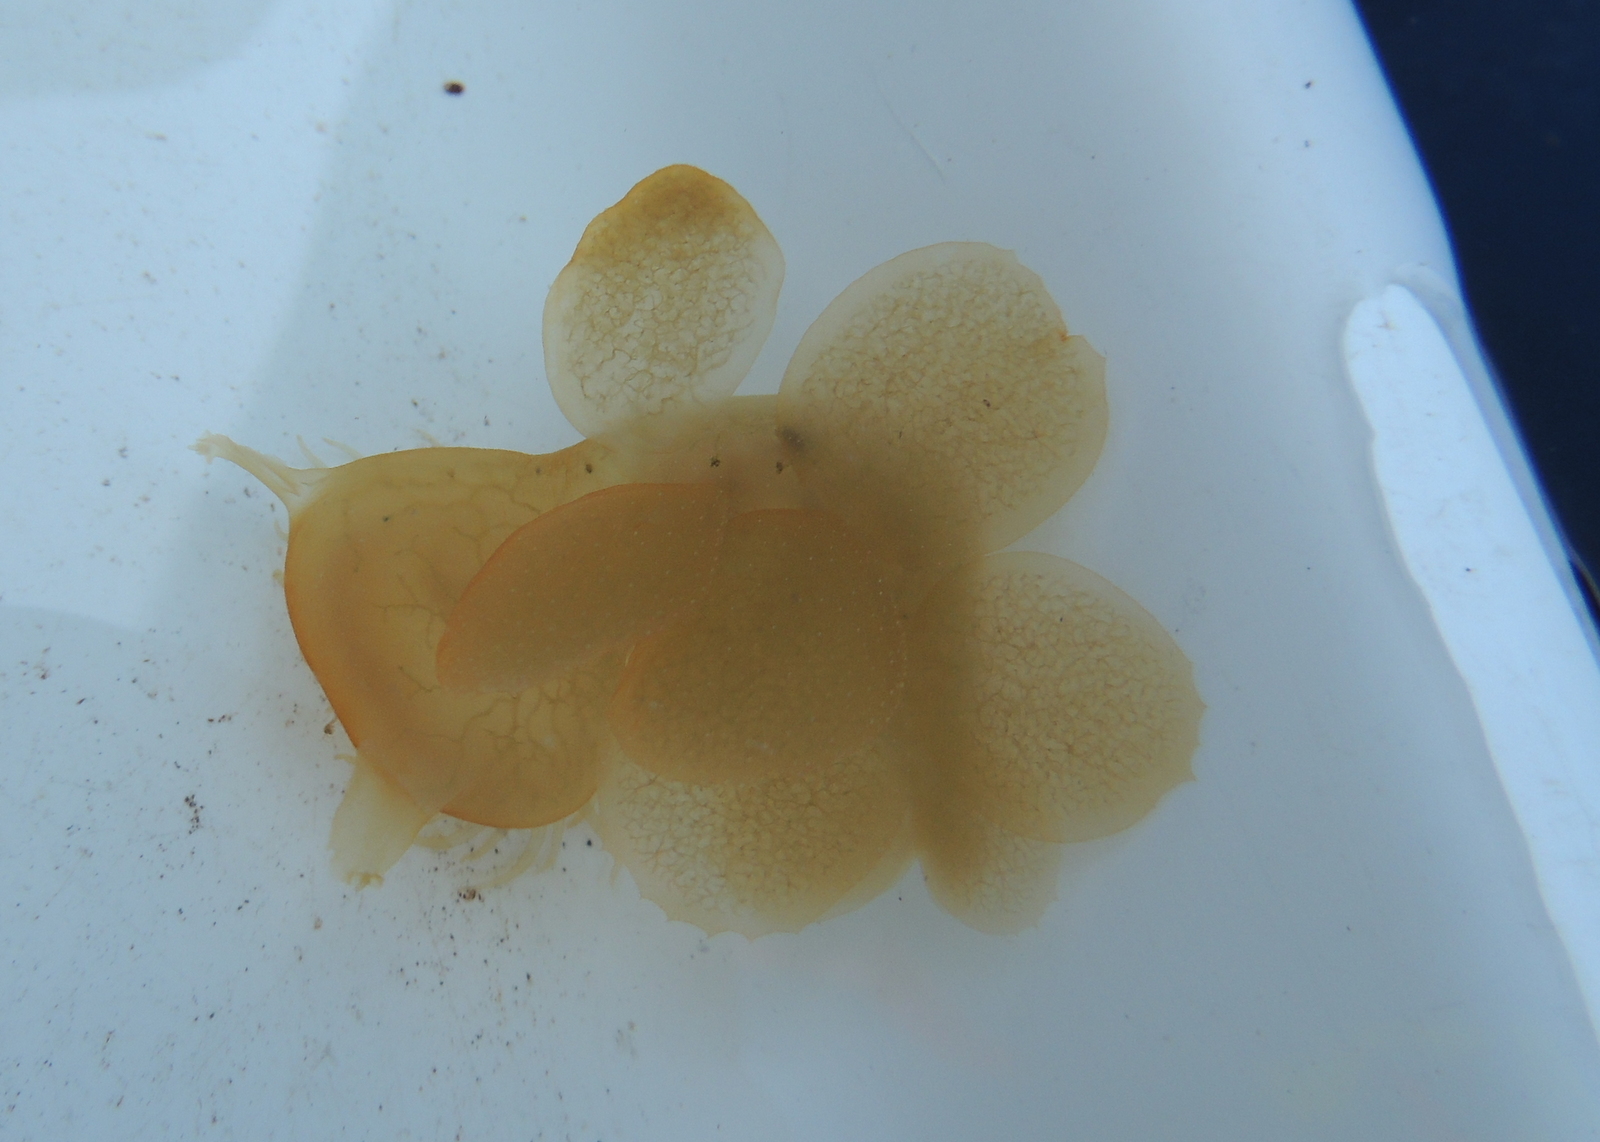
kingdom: Animalia
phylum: Mollusca
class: Gastropoda
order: Nudibranchia
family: Tethydidae
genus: Melibe
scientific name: Melibe leonina
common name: Lion nudibranch
